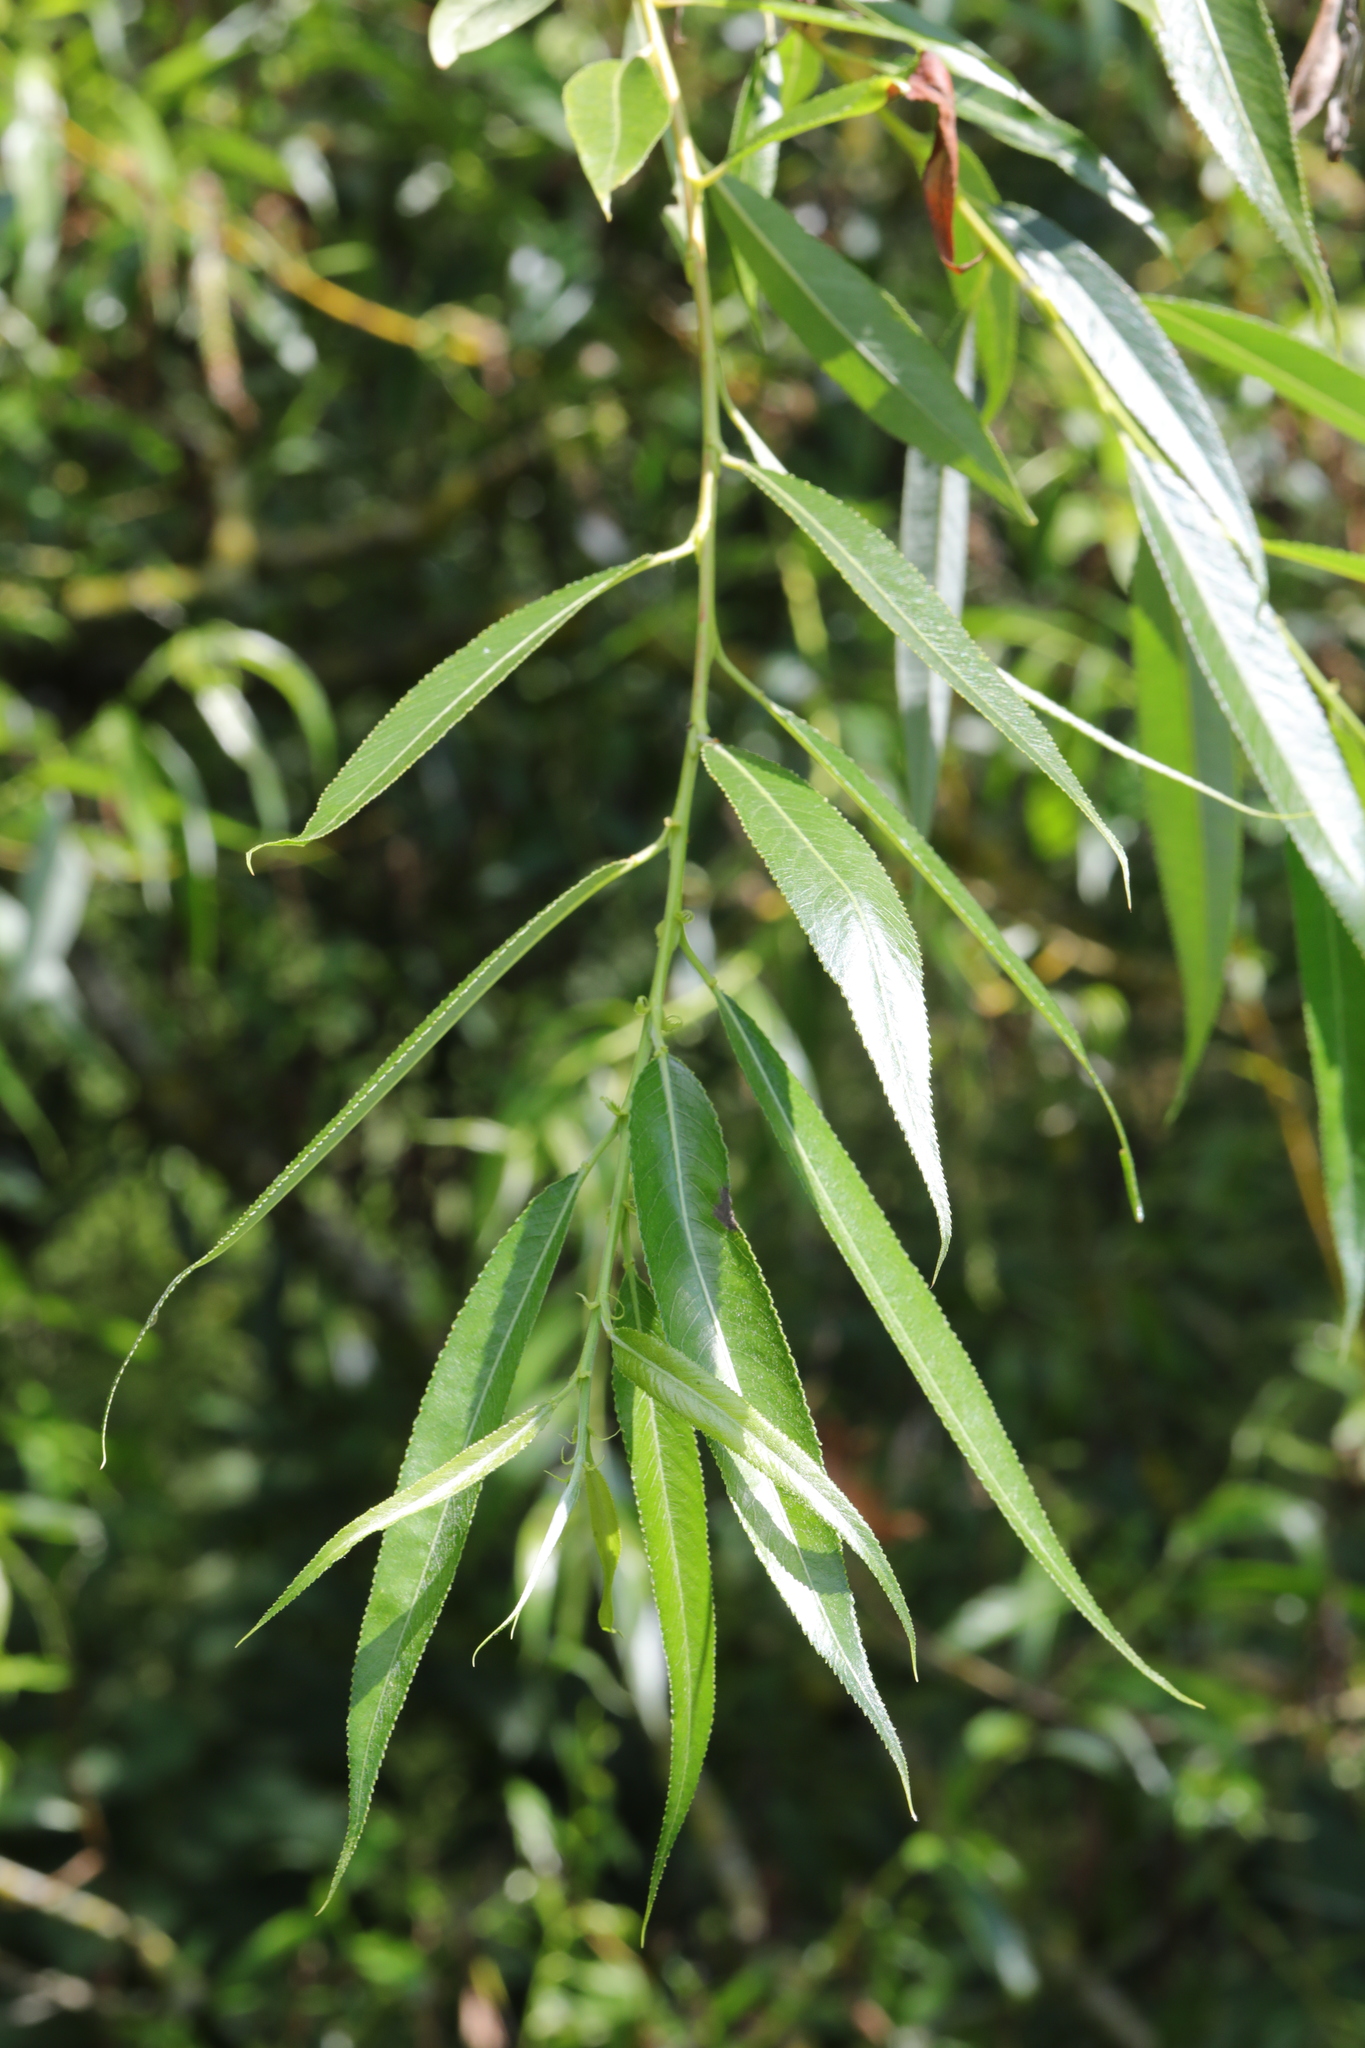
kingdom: Plantae
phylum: Tracheophyta
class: Magnoliopsida
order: Malpighiales
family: Salicaceae
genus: Salix
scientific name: Salix alba
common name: White willow
